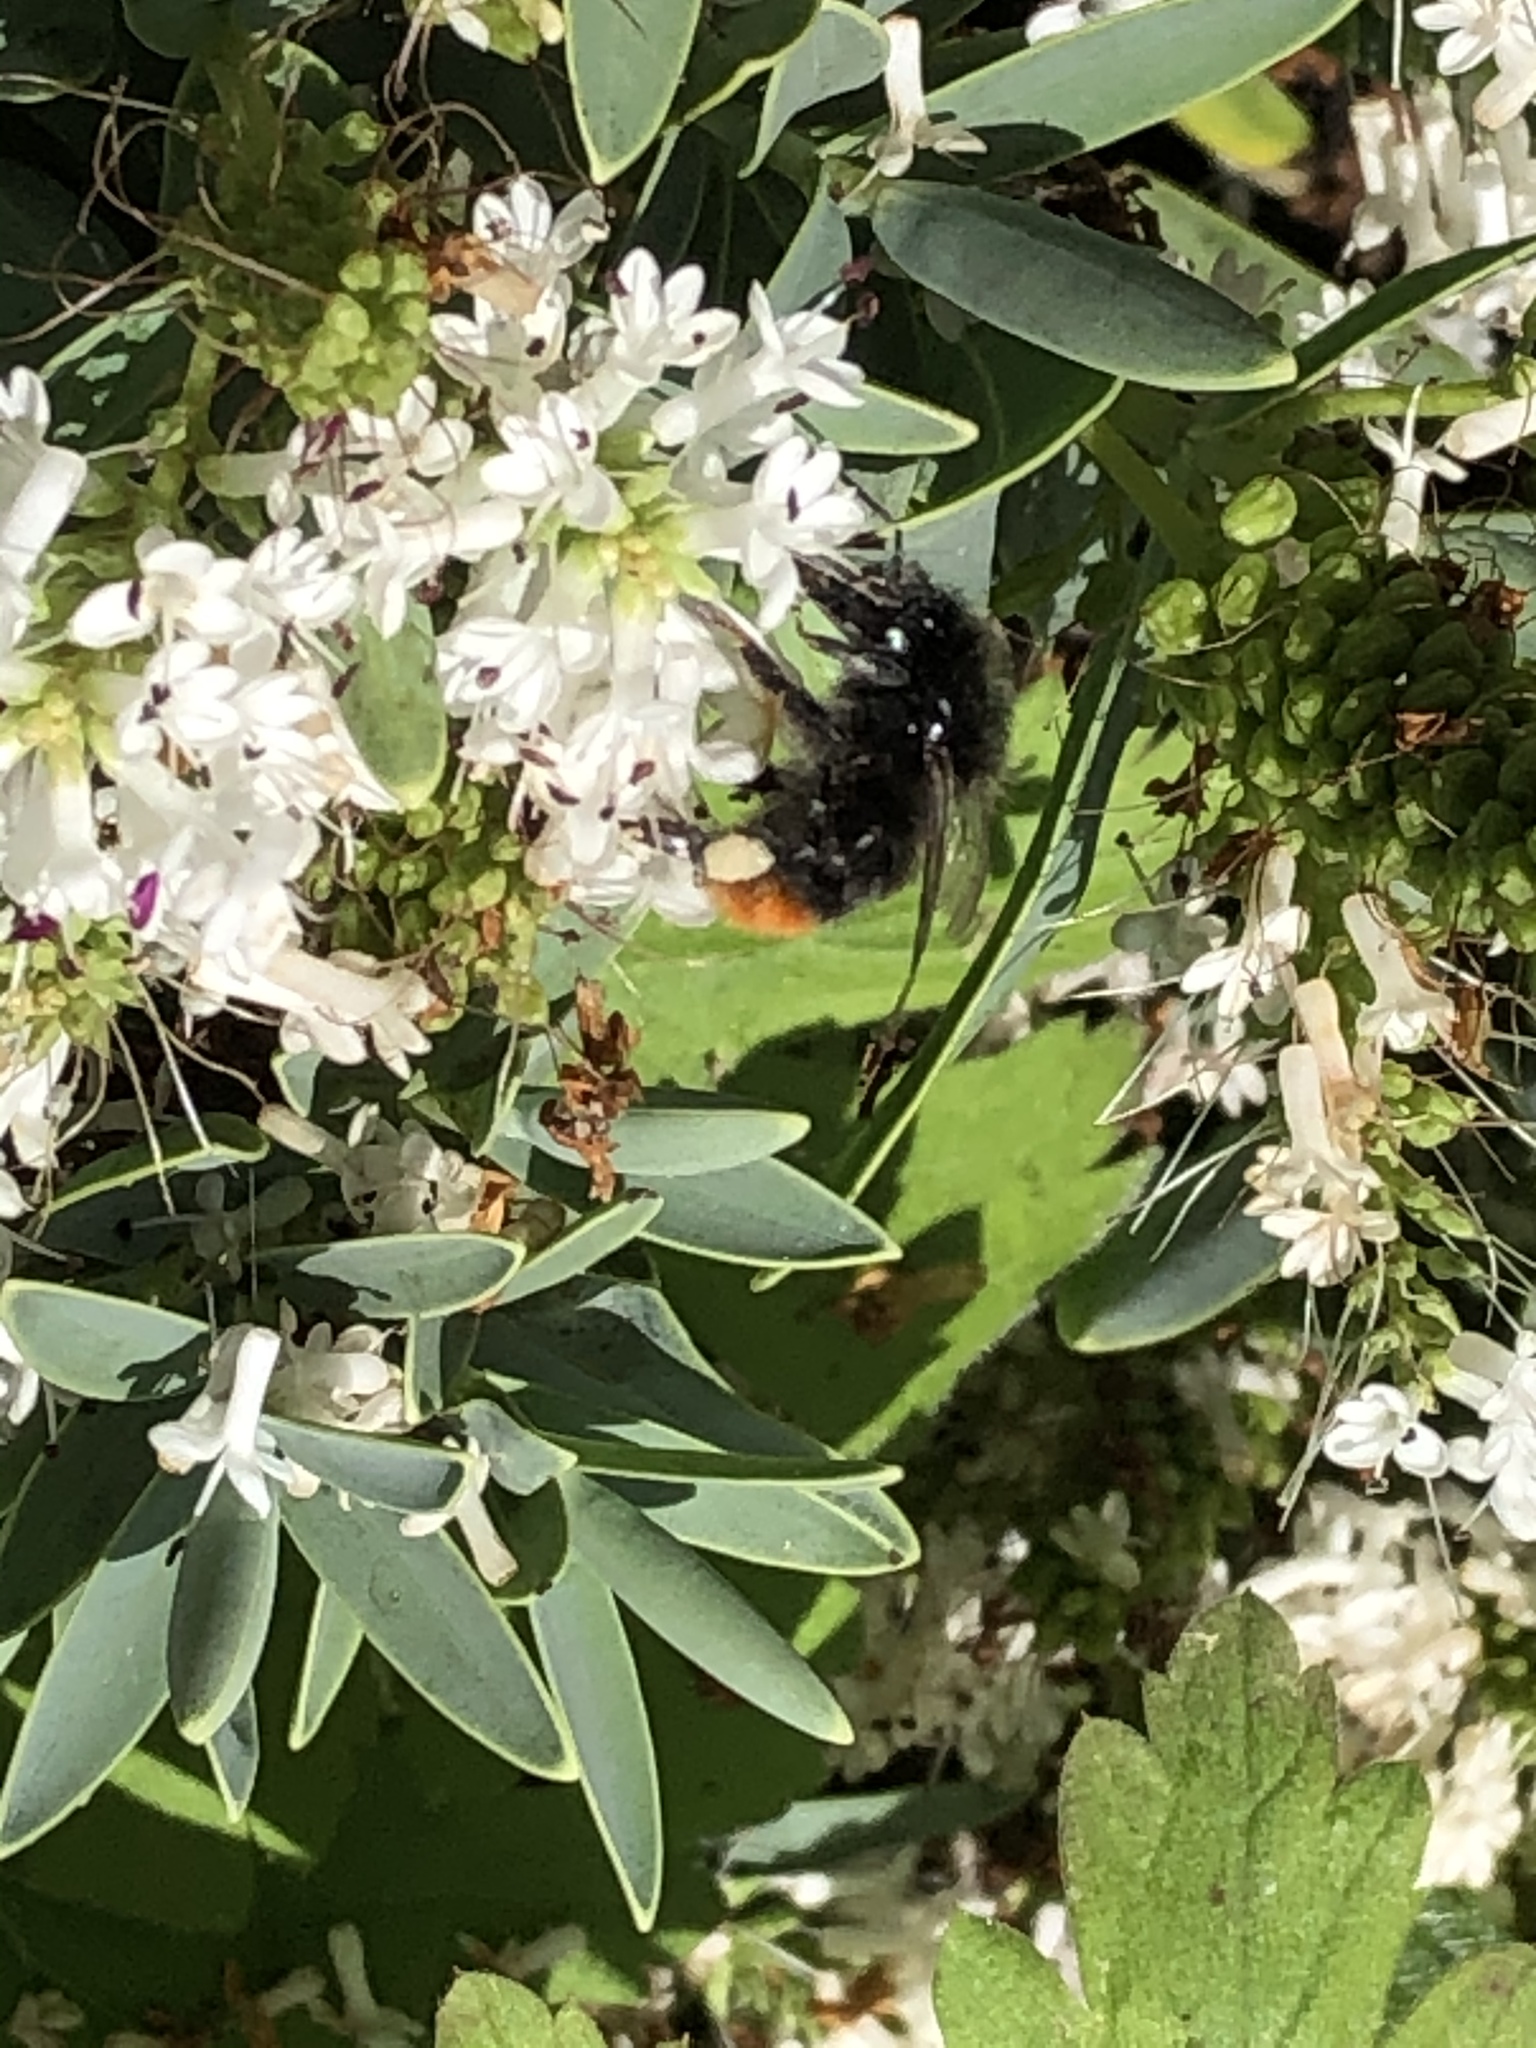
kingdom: Animalia
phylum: Arthropoda
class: Insecta
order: Hymenoptera
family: Apidae
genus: Bombus
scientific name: Bombus lapidarius
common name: Large red-tailed humble-bee
